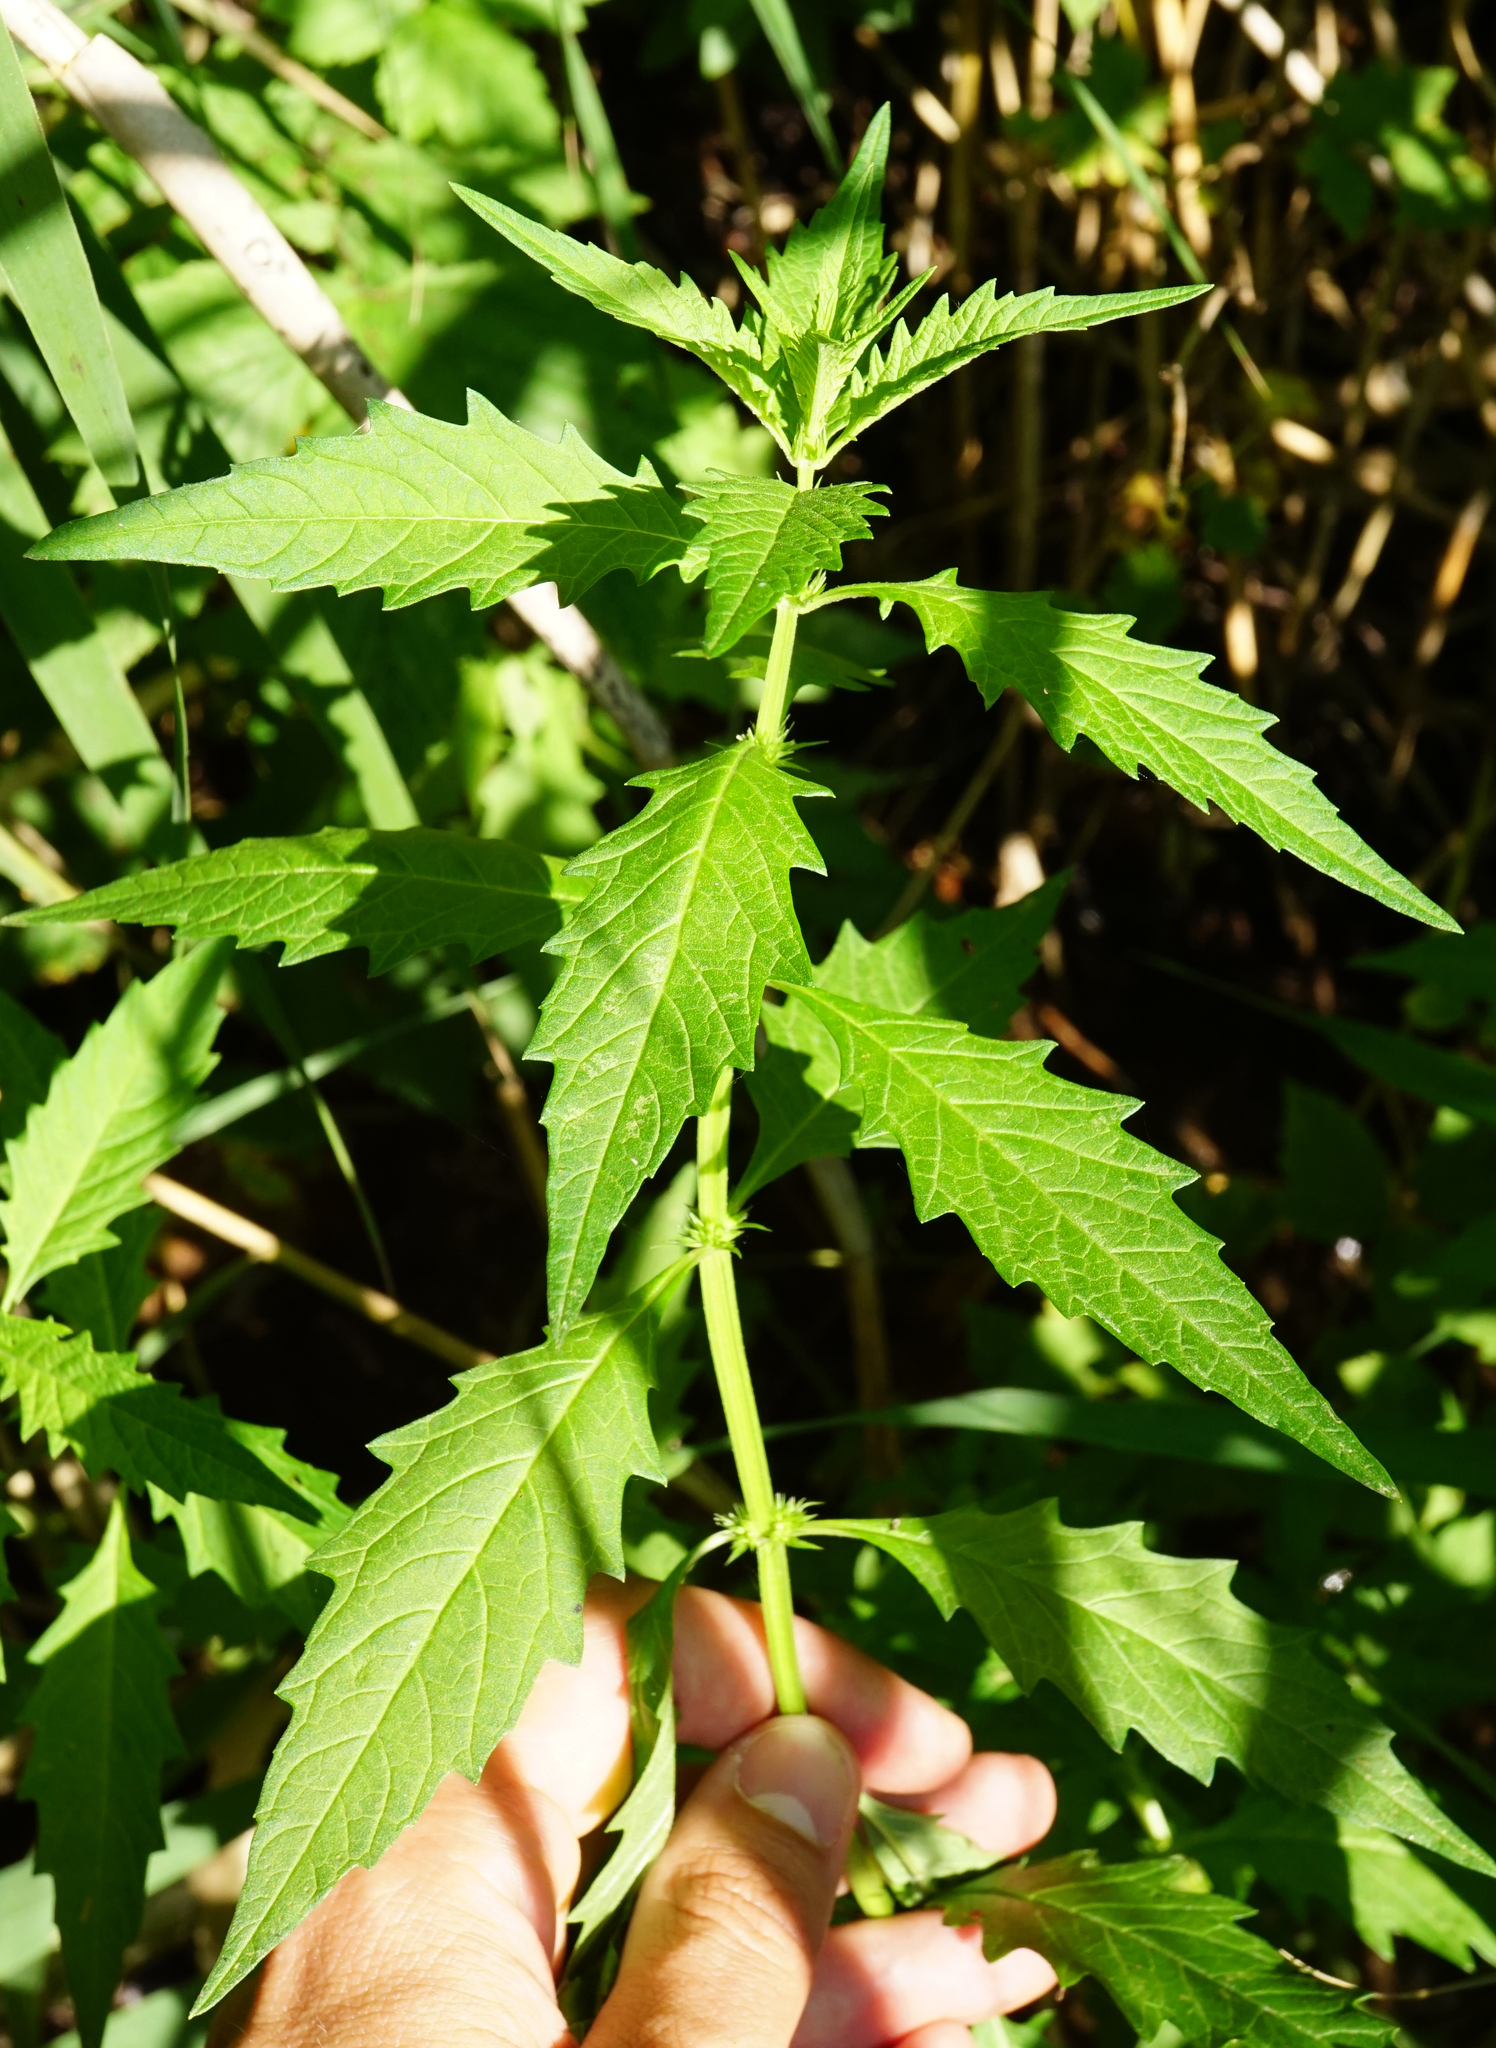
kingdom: Plantae
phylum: Tracheophyta
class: Magnoliopsida
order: Lamiales
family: Lamiaceae
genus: Lycopus
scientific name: Lycopus europaeus
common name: European bugleweed
